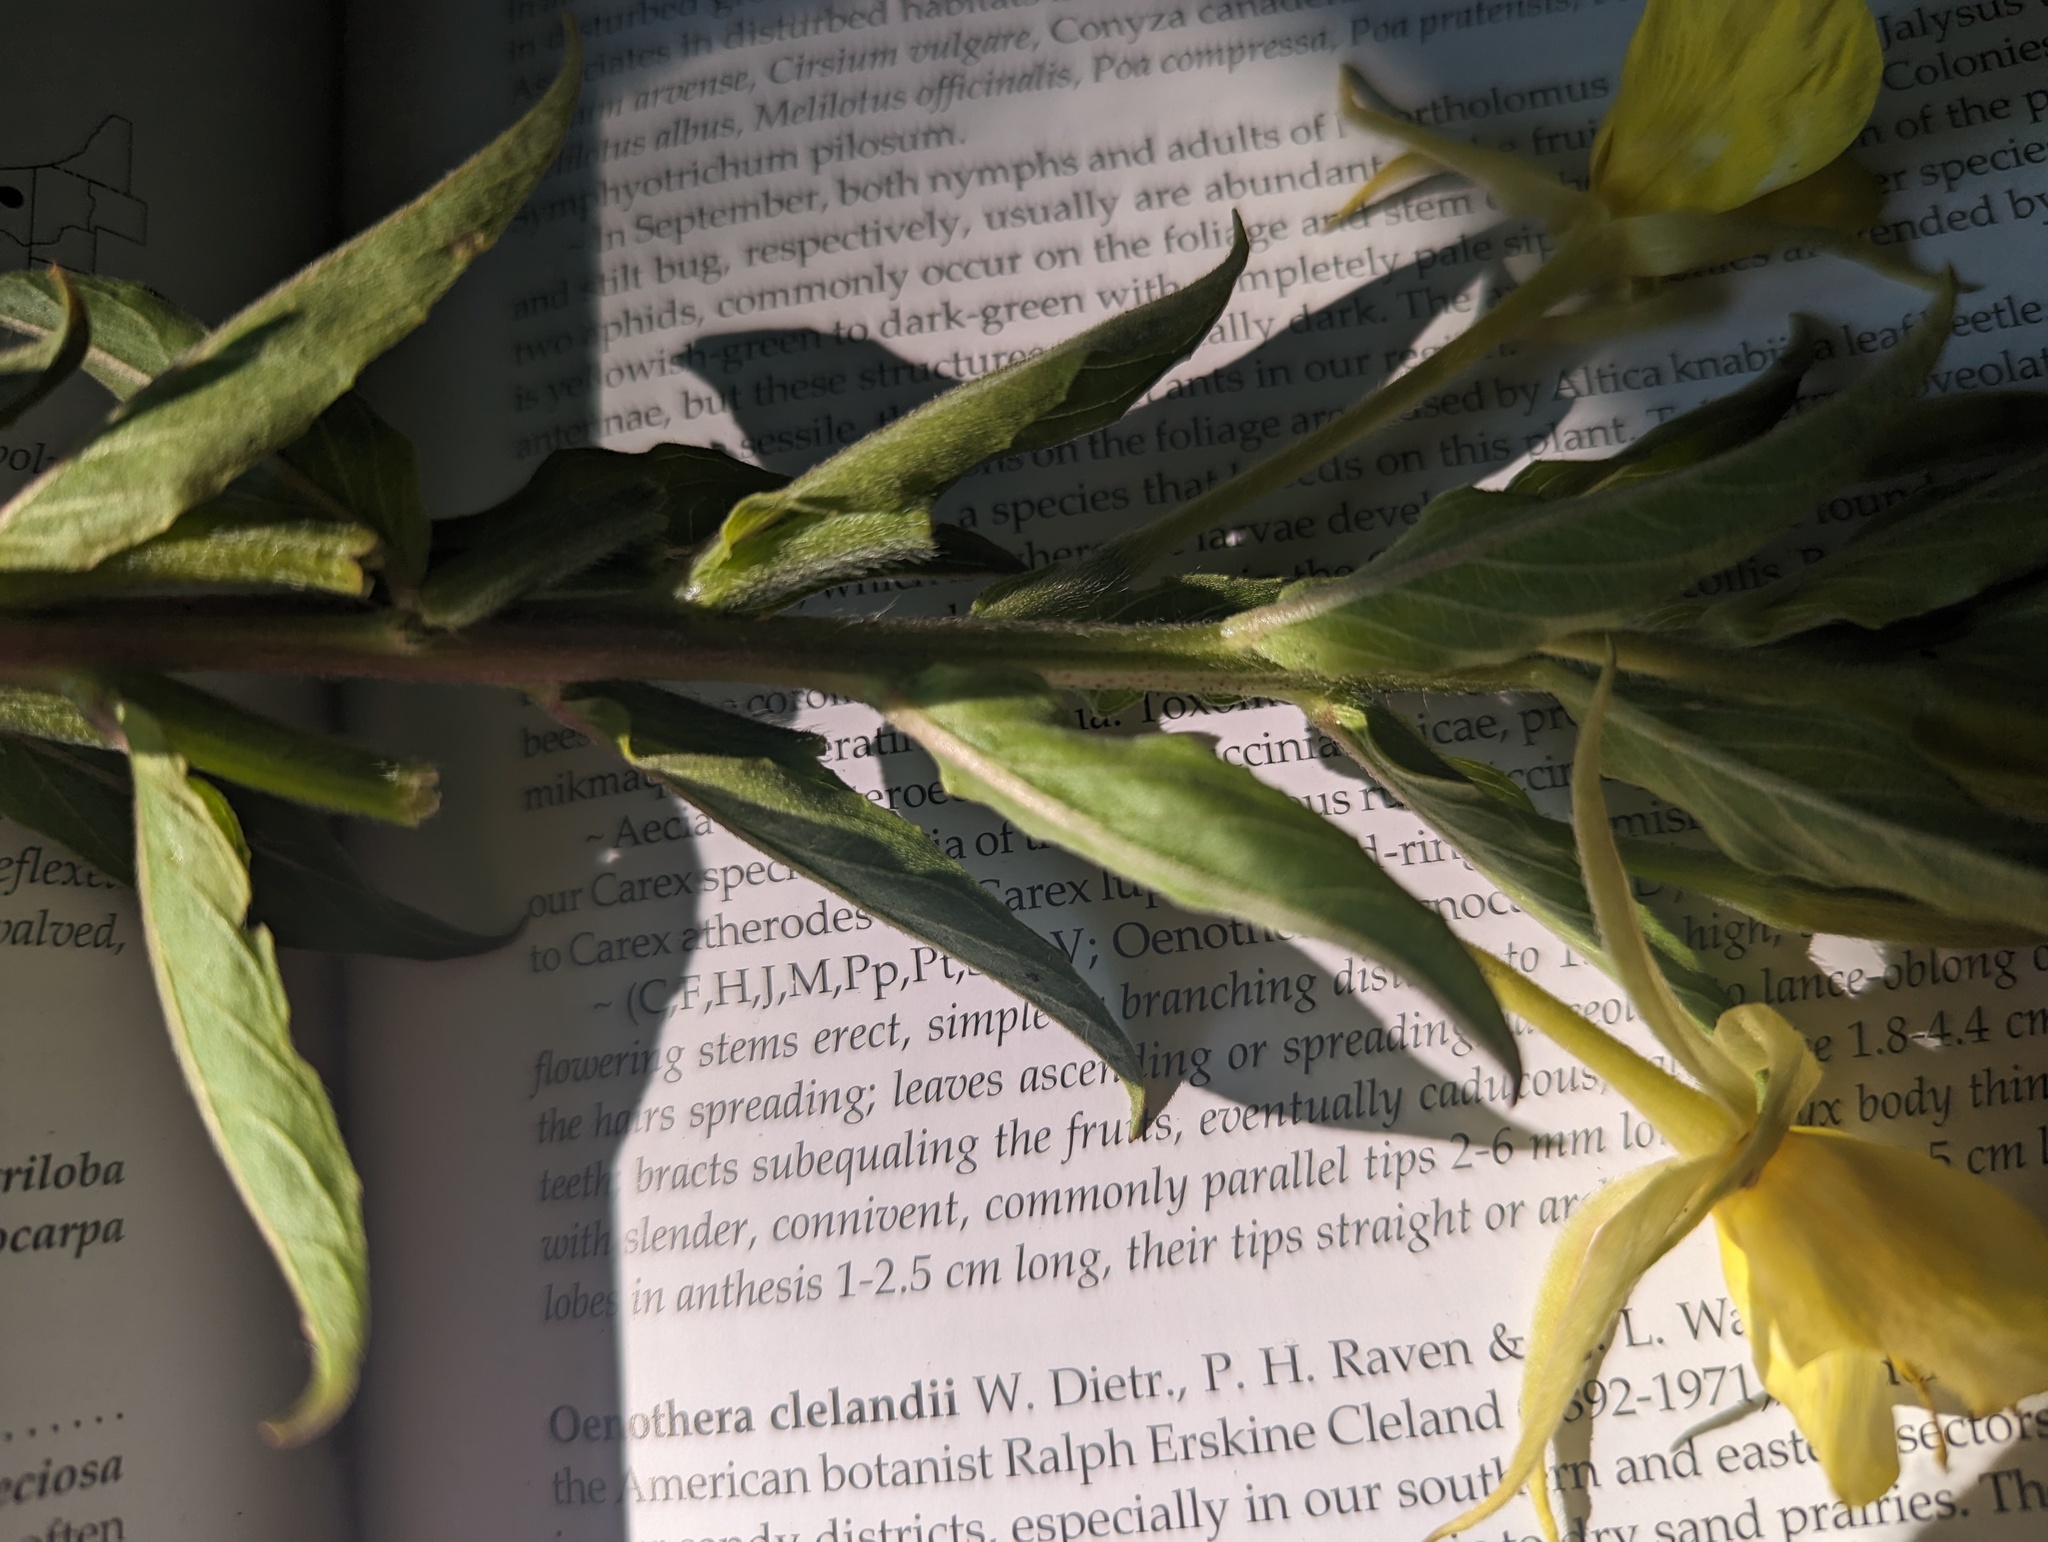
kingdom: Plantae
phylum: Tracheophyta
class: Magnoliopsida
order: Myrtales
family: Onagraceae
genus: Oenothera
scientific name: Oenothera biennis
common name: Common evening-primrose
